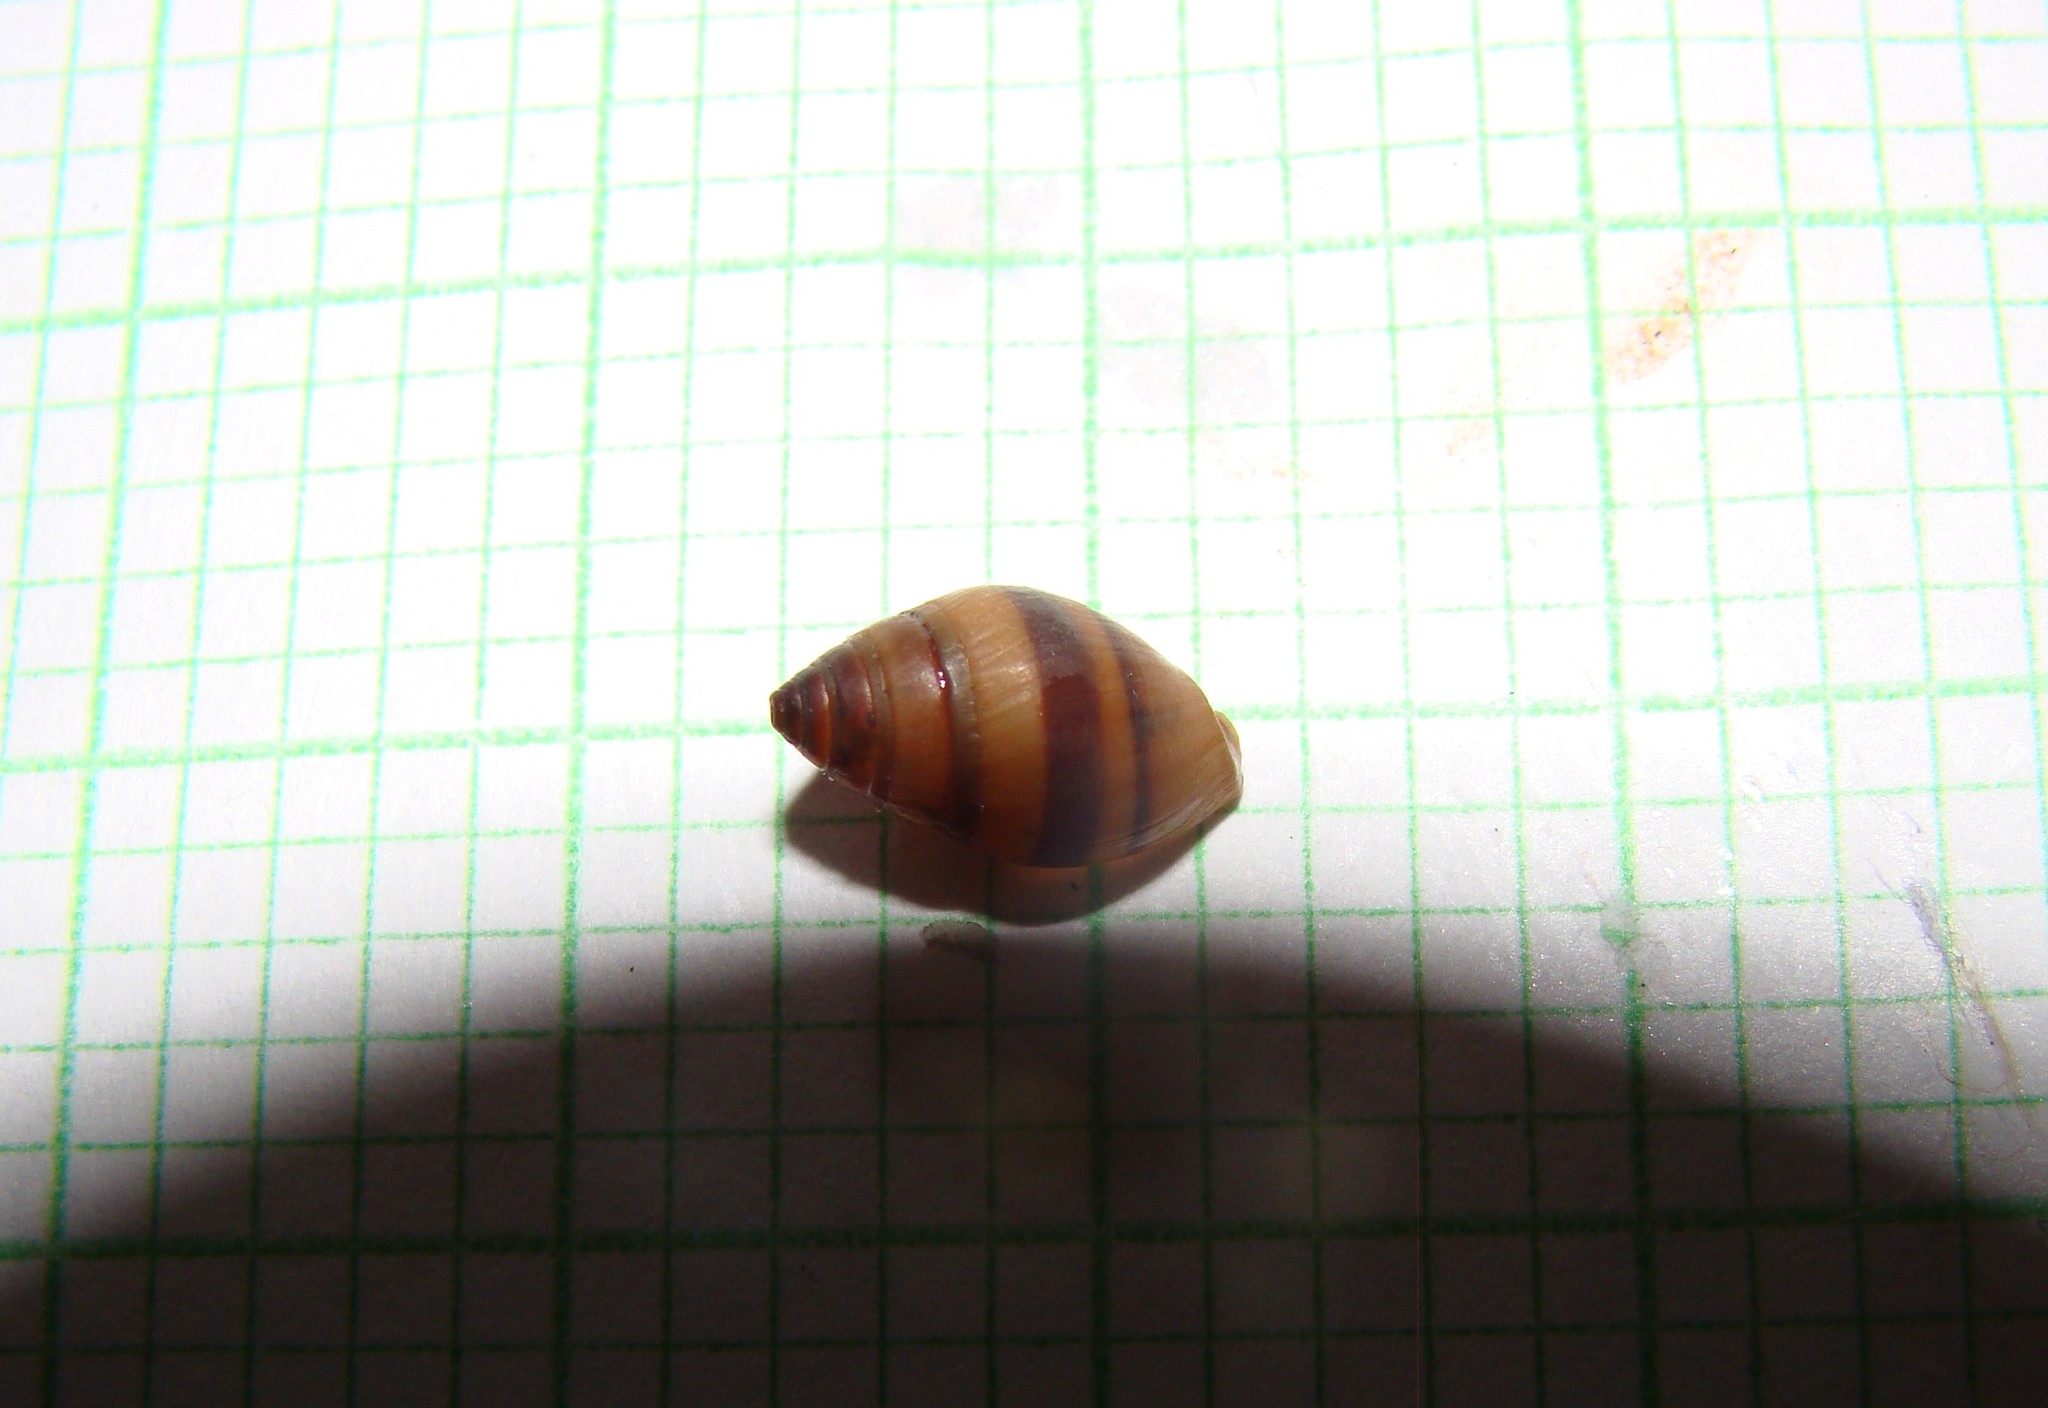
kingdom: Animalia
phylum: Mollusca
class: Gastropoda
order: Ellobiida
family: Ellobiidae
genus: Pleuroloba
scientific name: Pleuroloba costellaris
